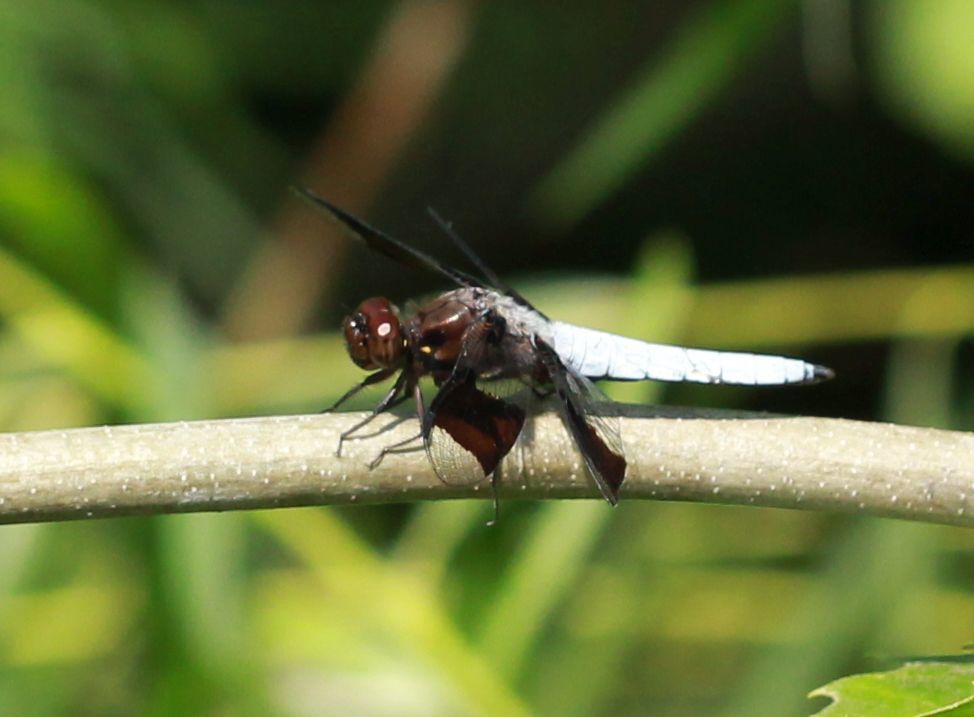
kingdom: Animalia
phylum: Arthropoda
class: Insecta
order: Odonata
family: Libellulidae
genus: Plathemis
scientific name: Plathemis lydia
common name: Common whitetail
